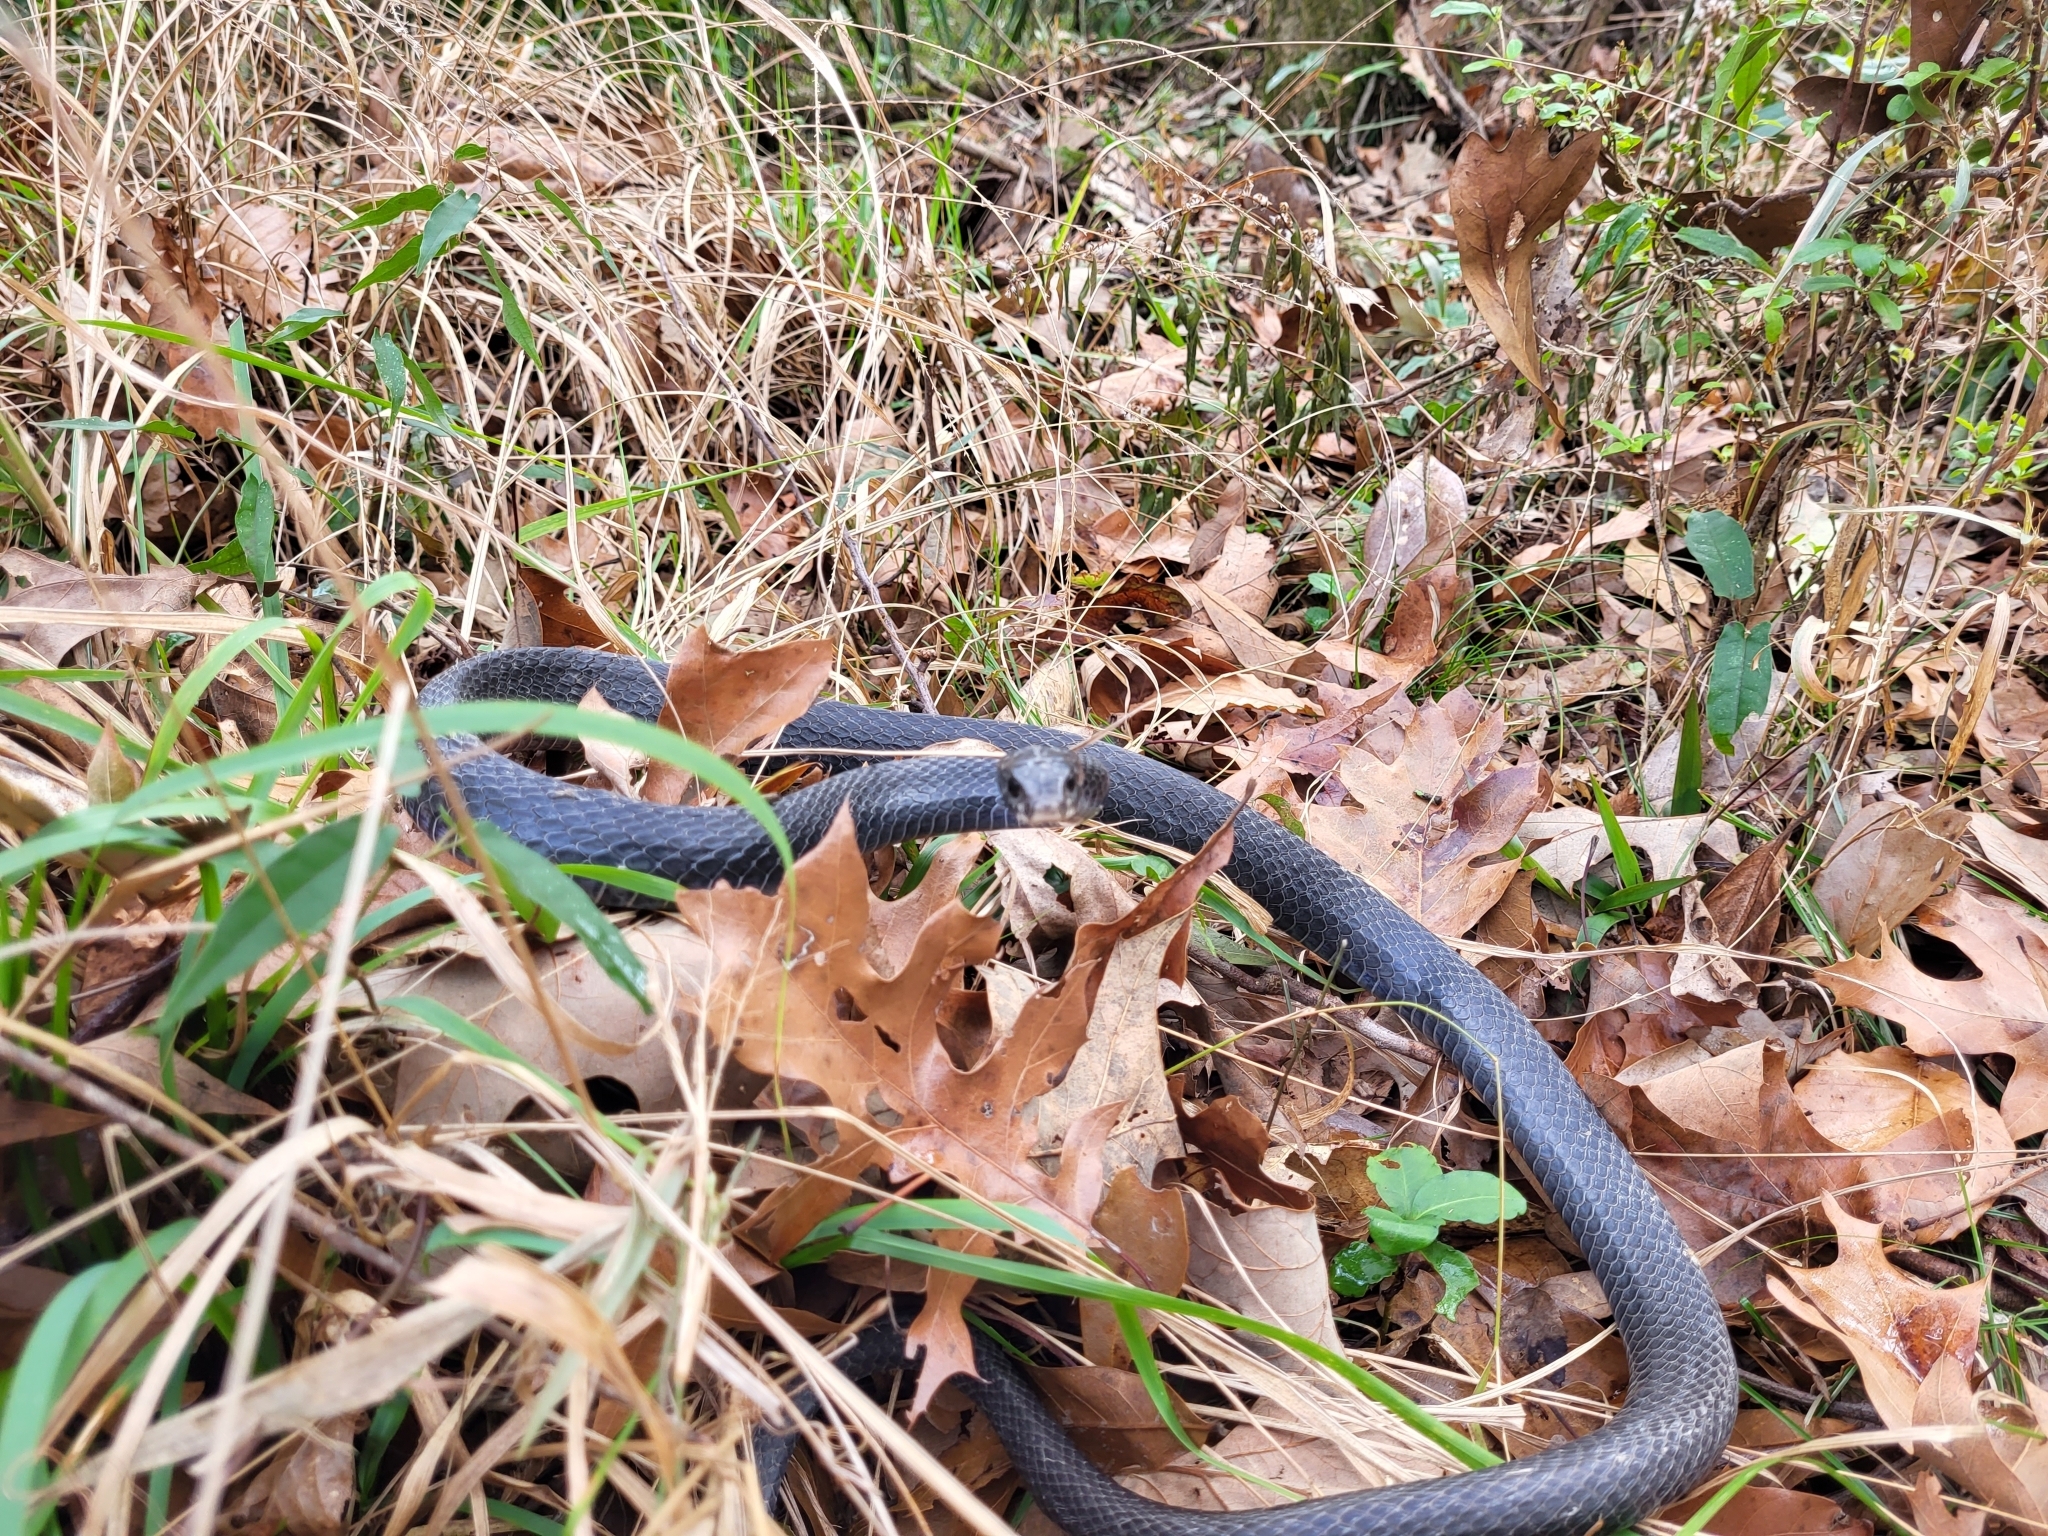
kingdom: Animalia
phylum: Chordata
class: Squamata
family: Colubridae
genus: Coluber
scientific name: Coluber constrictor
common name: Eastern racer
